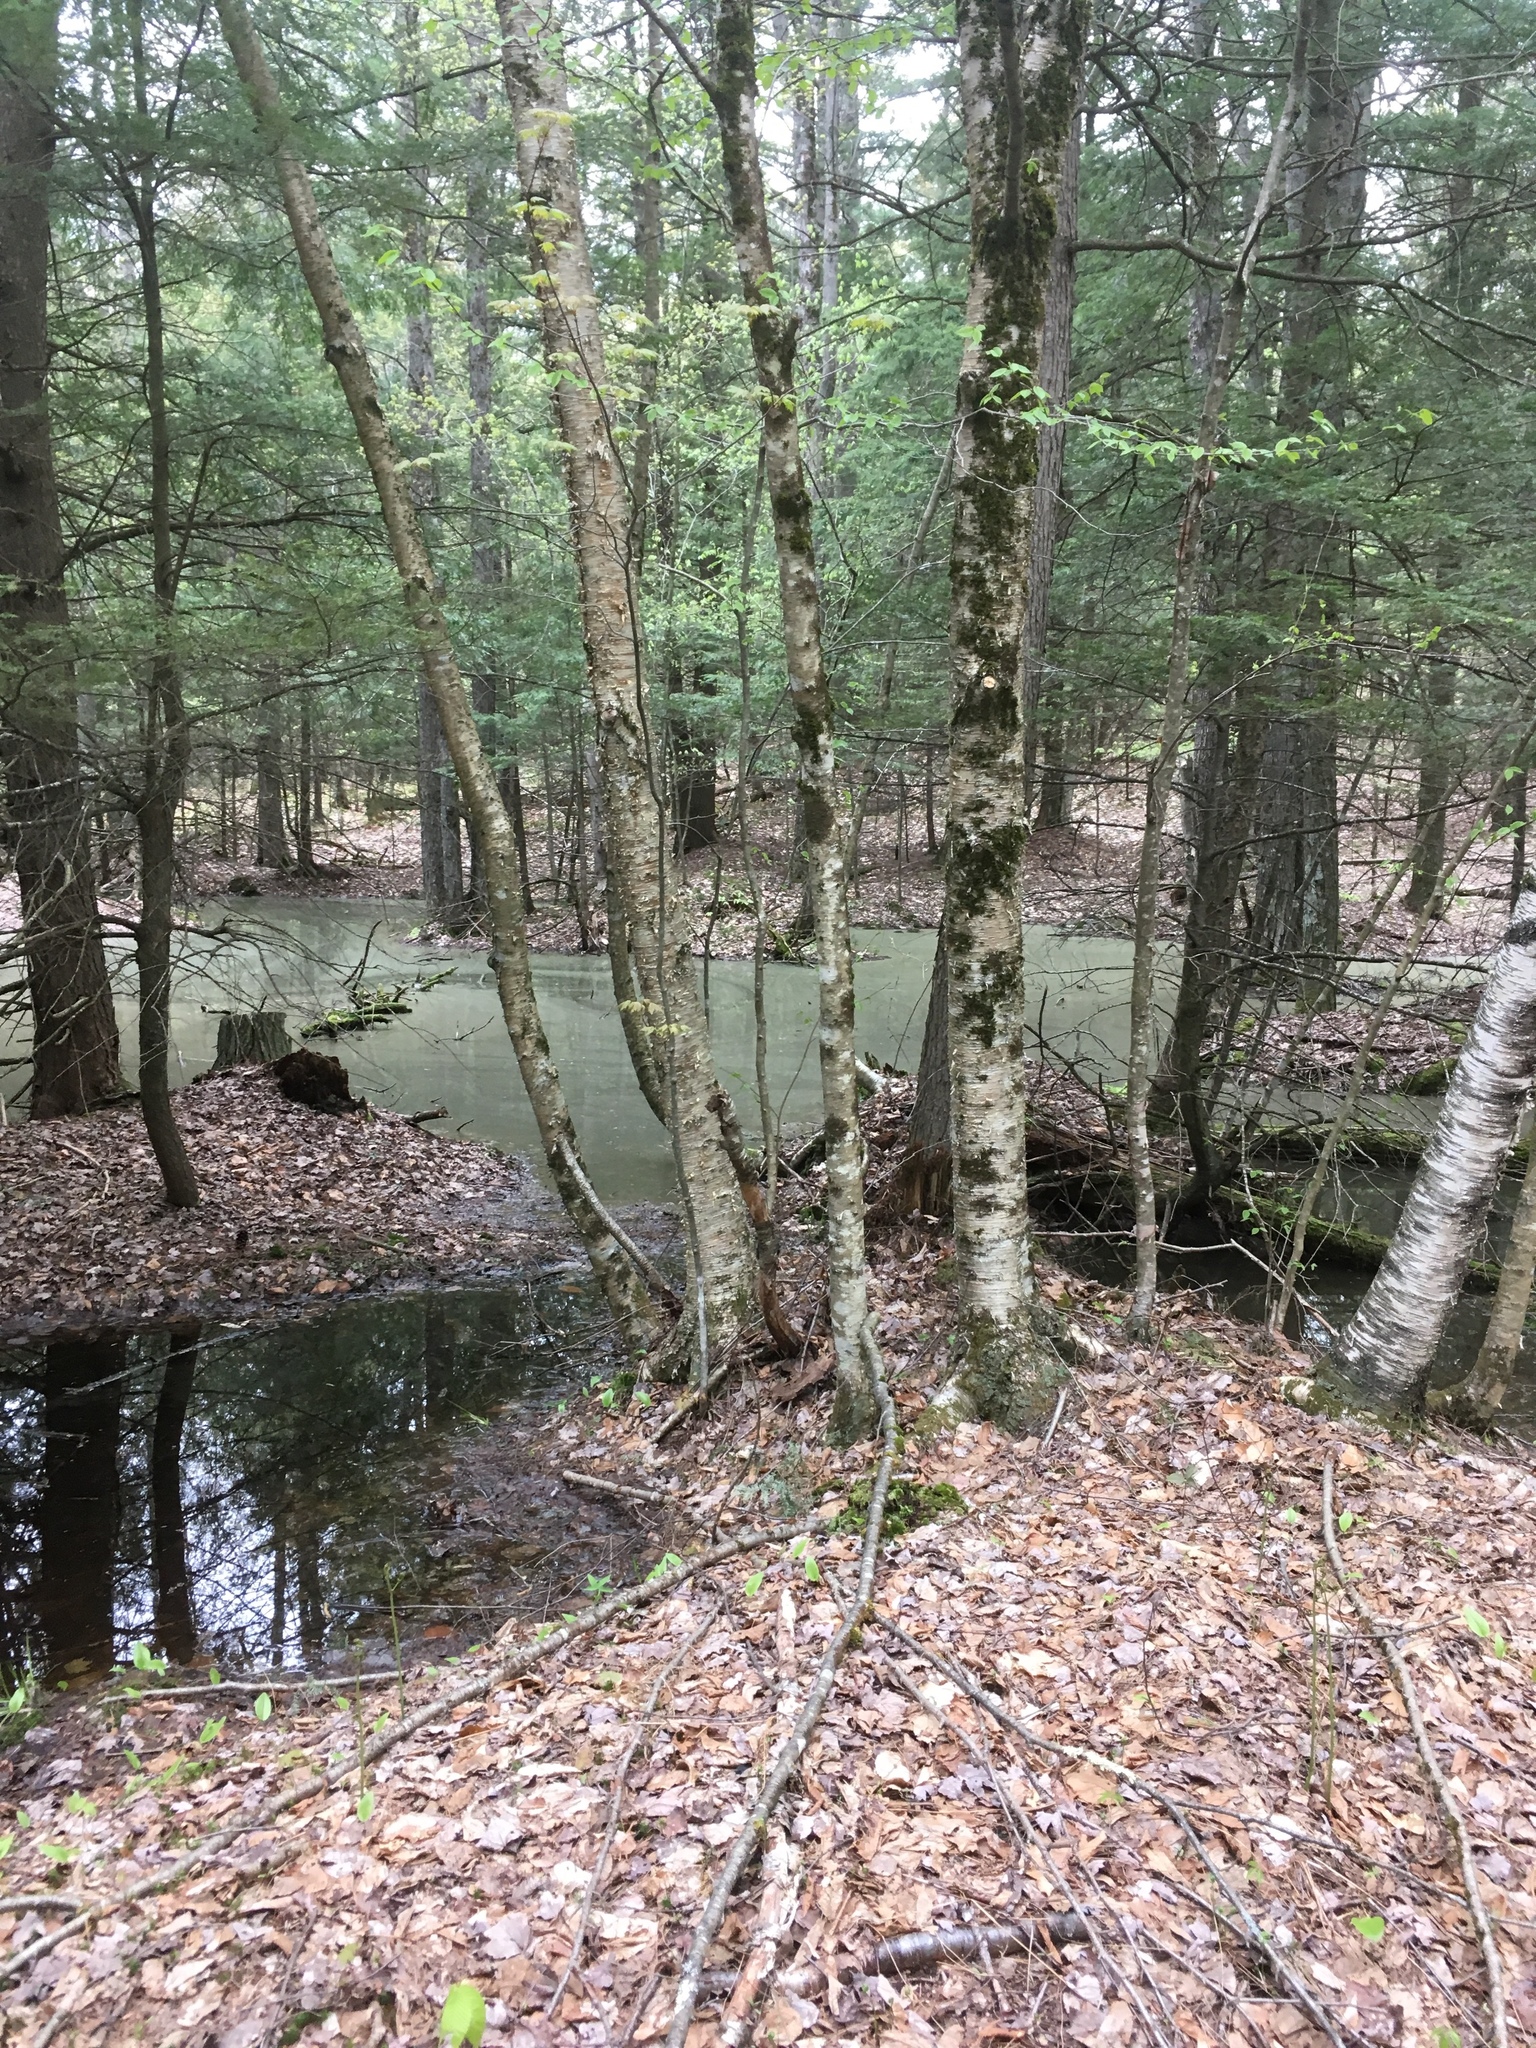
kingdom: Plantae
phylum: Tracheophyta
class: Magnoliopsida
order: Fagales
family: Betulaceae
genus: Betula
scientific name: Betula alleghaniensis
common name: Yellow birch
